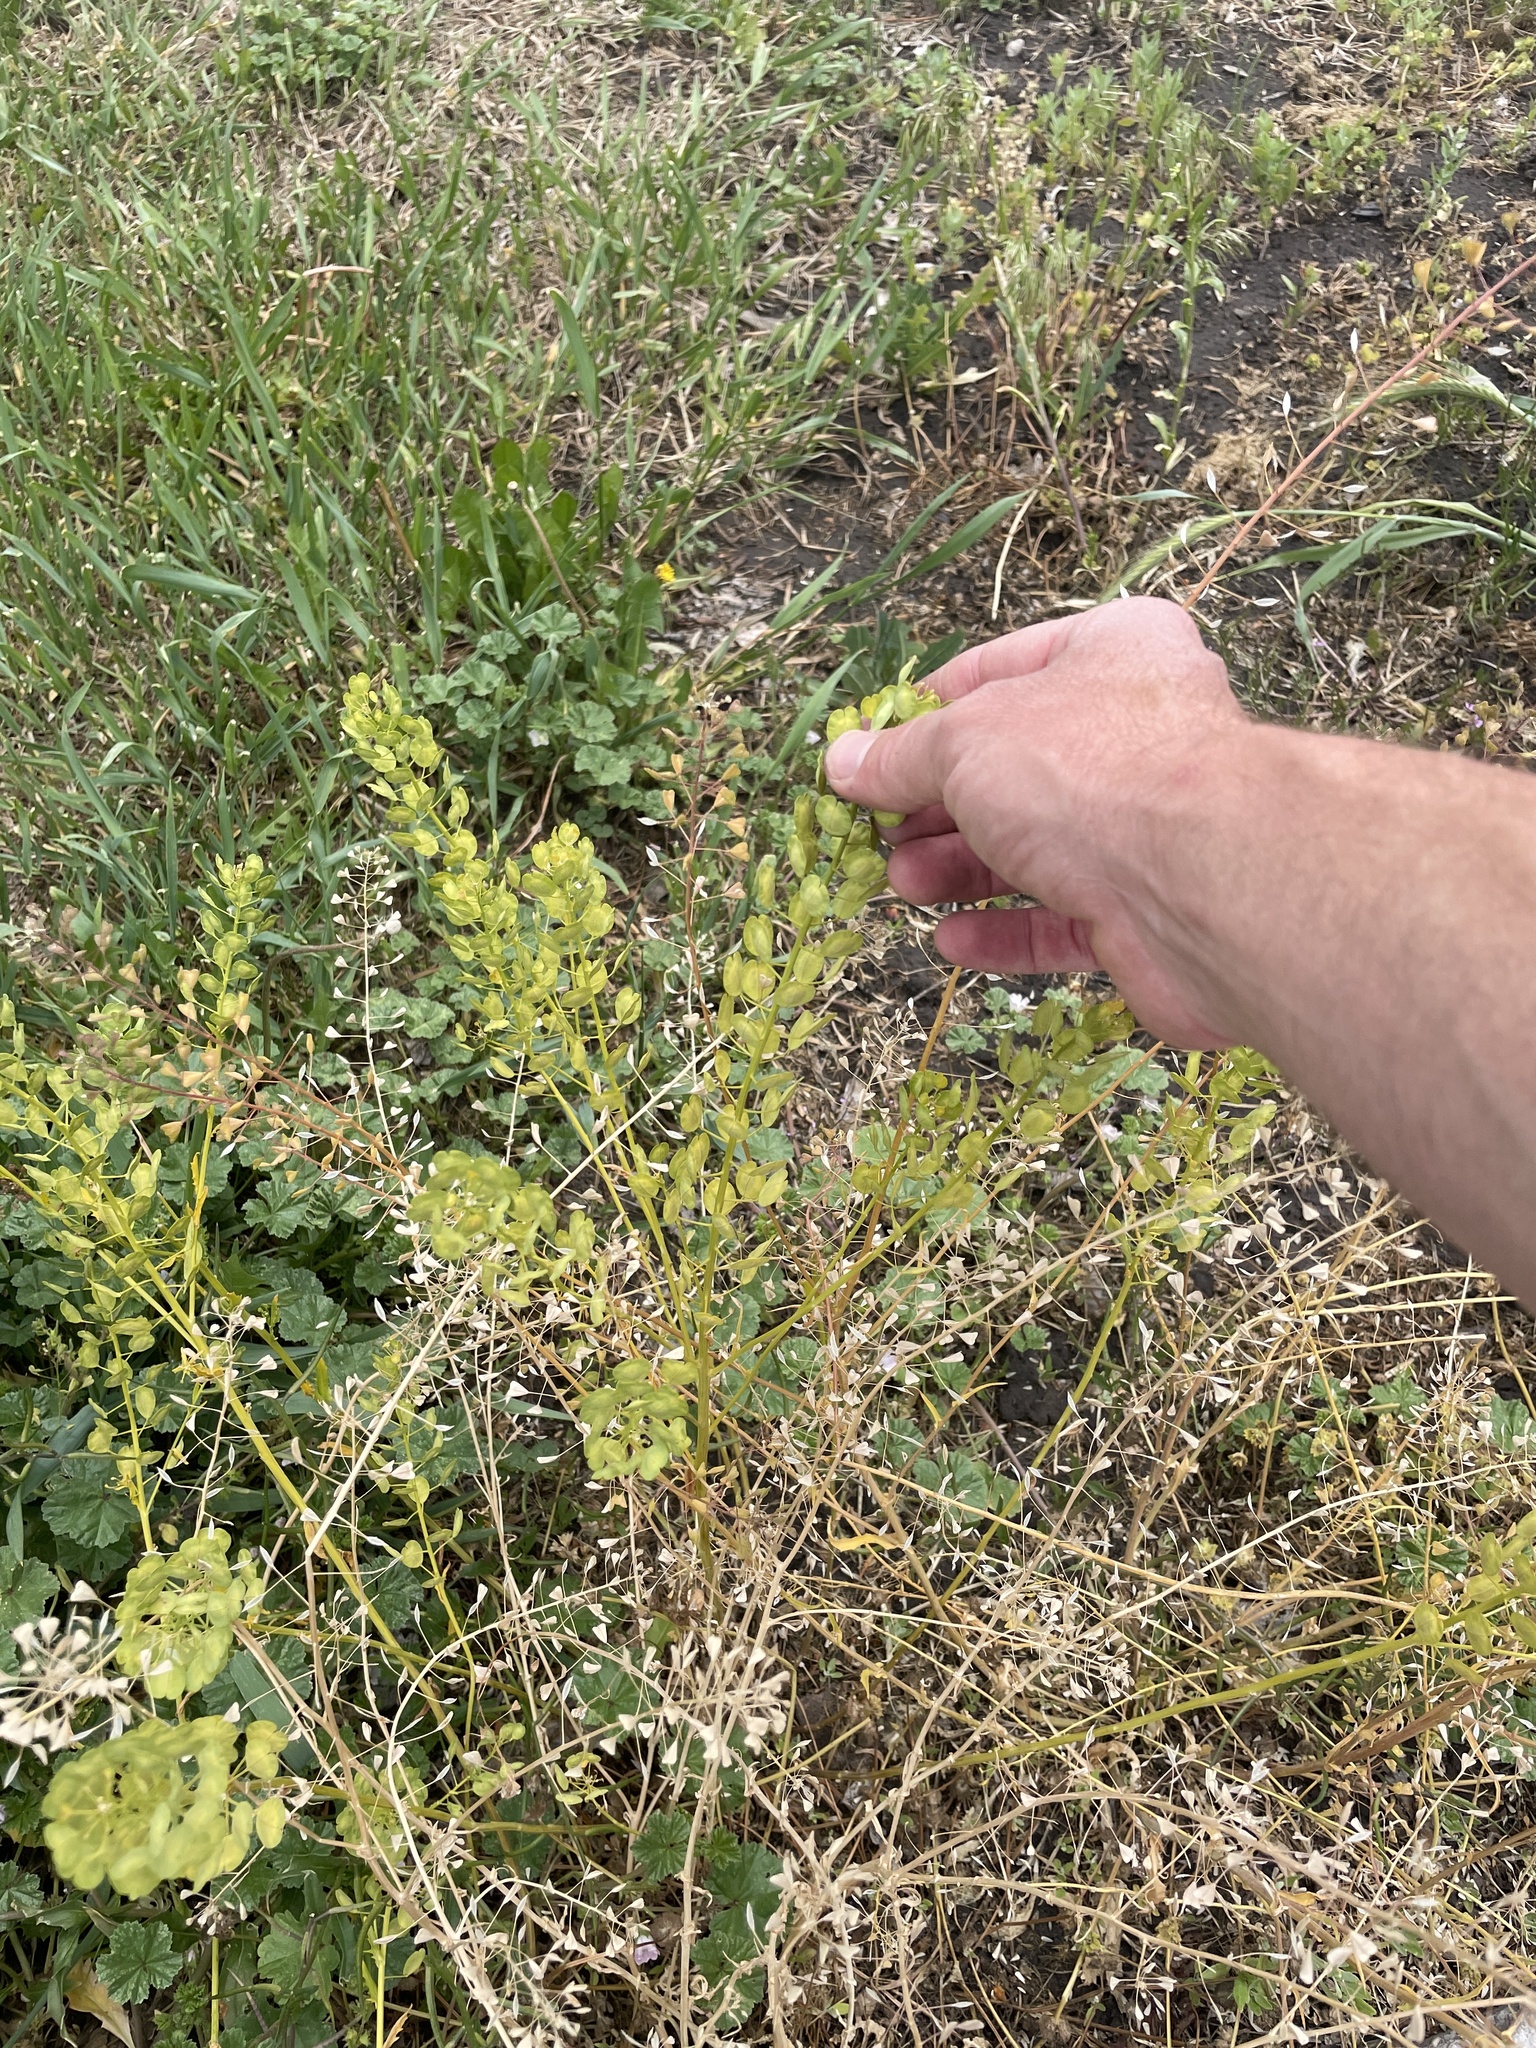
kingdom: Plantae
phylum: Tracheophyta
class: Magnoliopsida
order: Brassicales
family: Brassicaceae
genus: Thlaspi
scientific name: Thlaspi arvense
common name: Field pennycress
